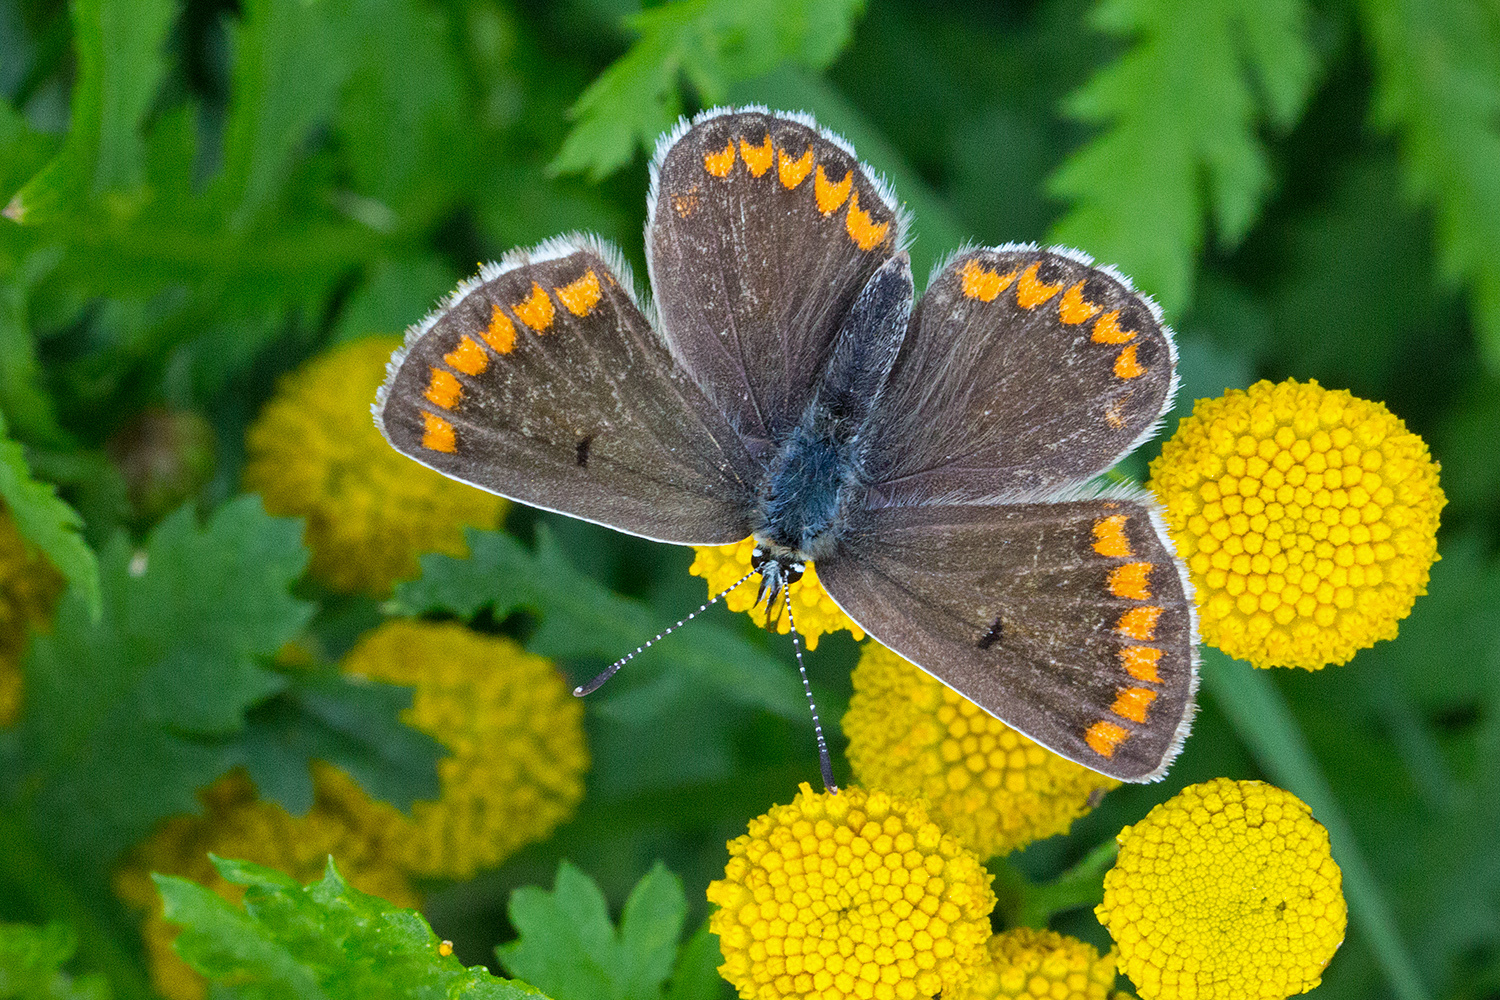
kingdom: Animalia
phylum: Arthropoda
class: Insecta
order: Lepidoptera
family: Lycaenidae
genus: Aricia
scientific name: Aricia agestis
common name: Brown argus
